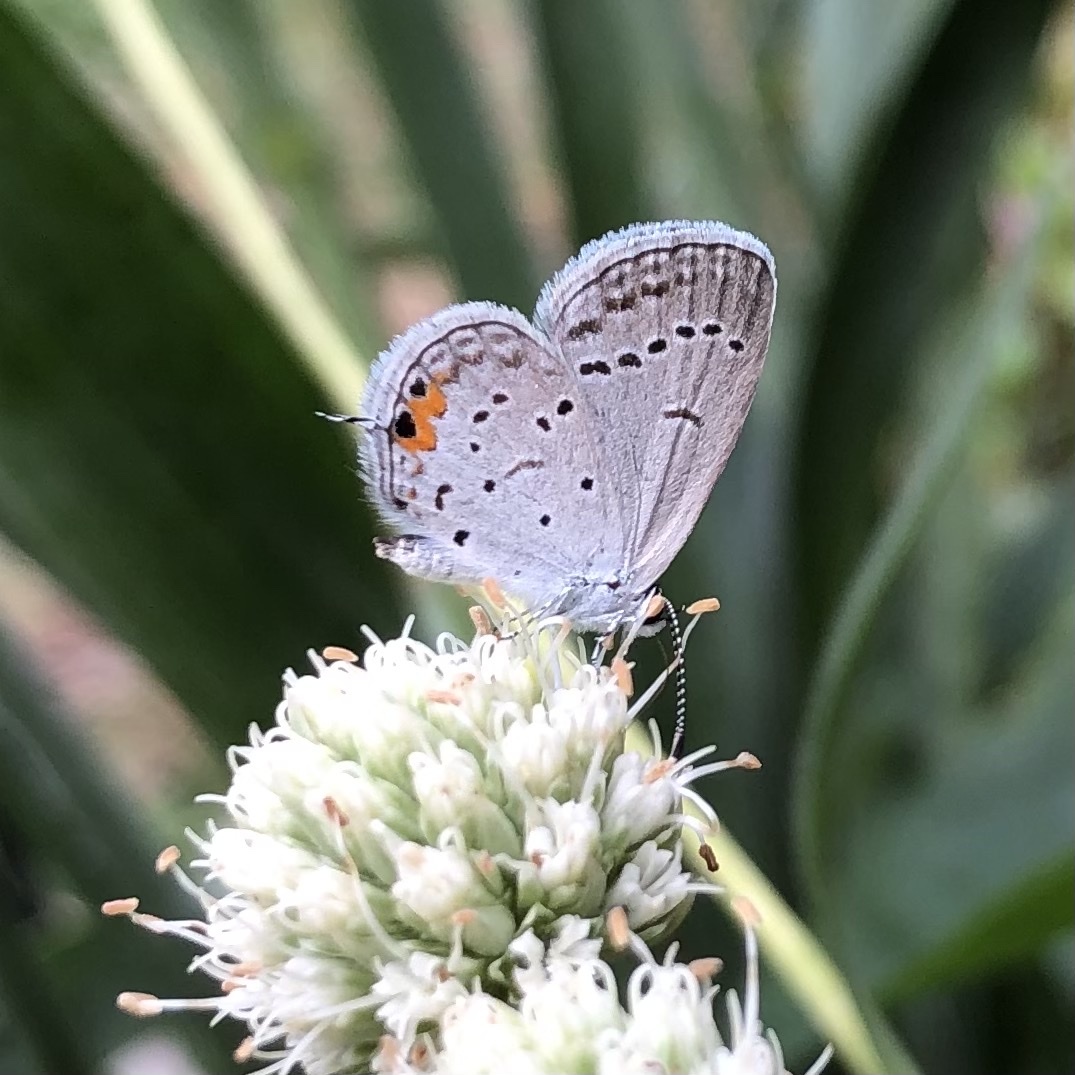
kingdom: Animalia
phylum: Arthropoda
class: Insecta
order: Lepidoptera
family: Lycaenidae
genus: Elkalyce
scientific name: Elkalyce comyntas
